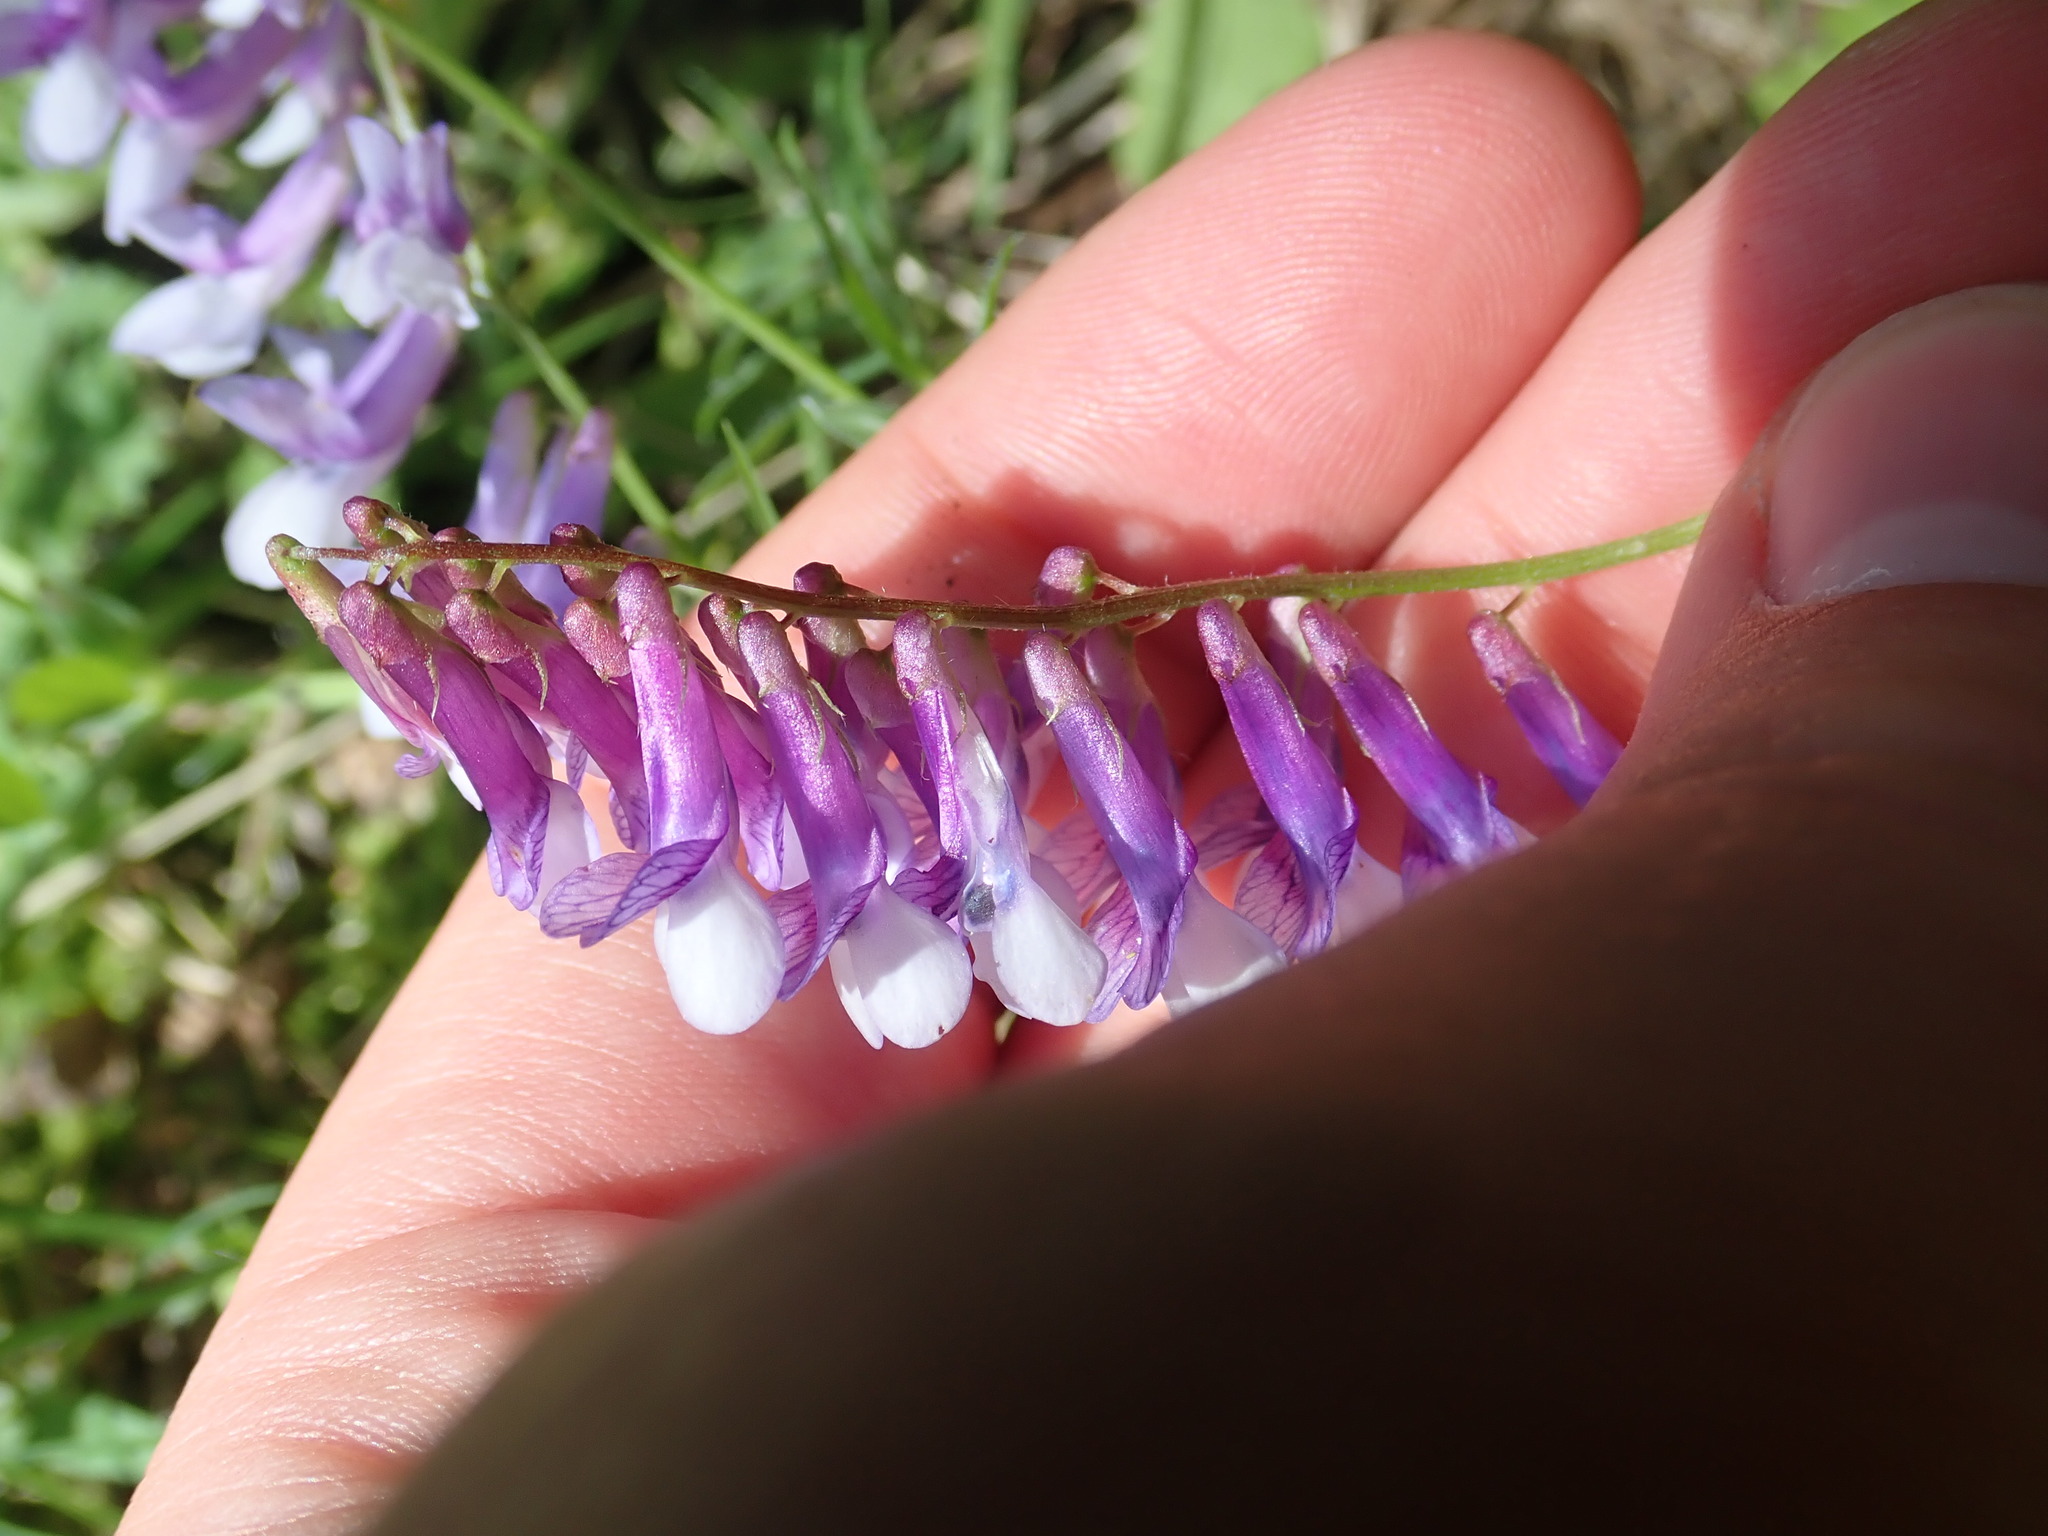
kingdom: Plantae
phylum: Tracheophyta
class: Magnoliopsida
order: Fabales
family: Fabaceae
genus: Vicia
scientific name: Vicia villosa
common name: Fodder vetch
